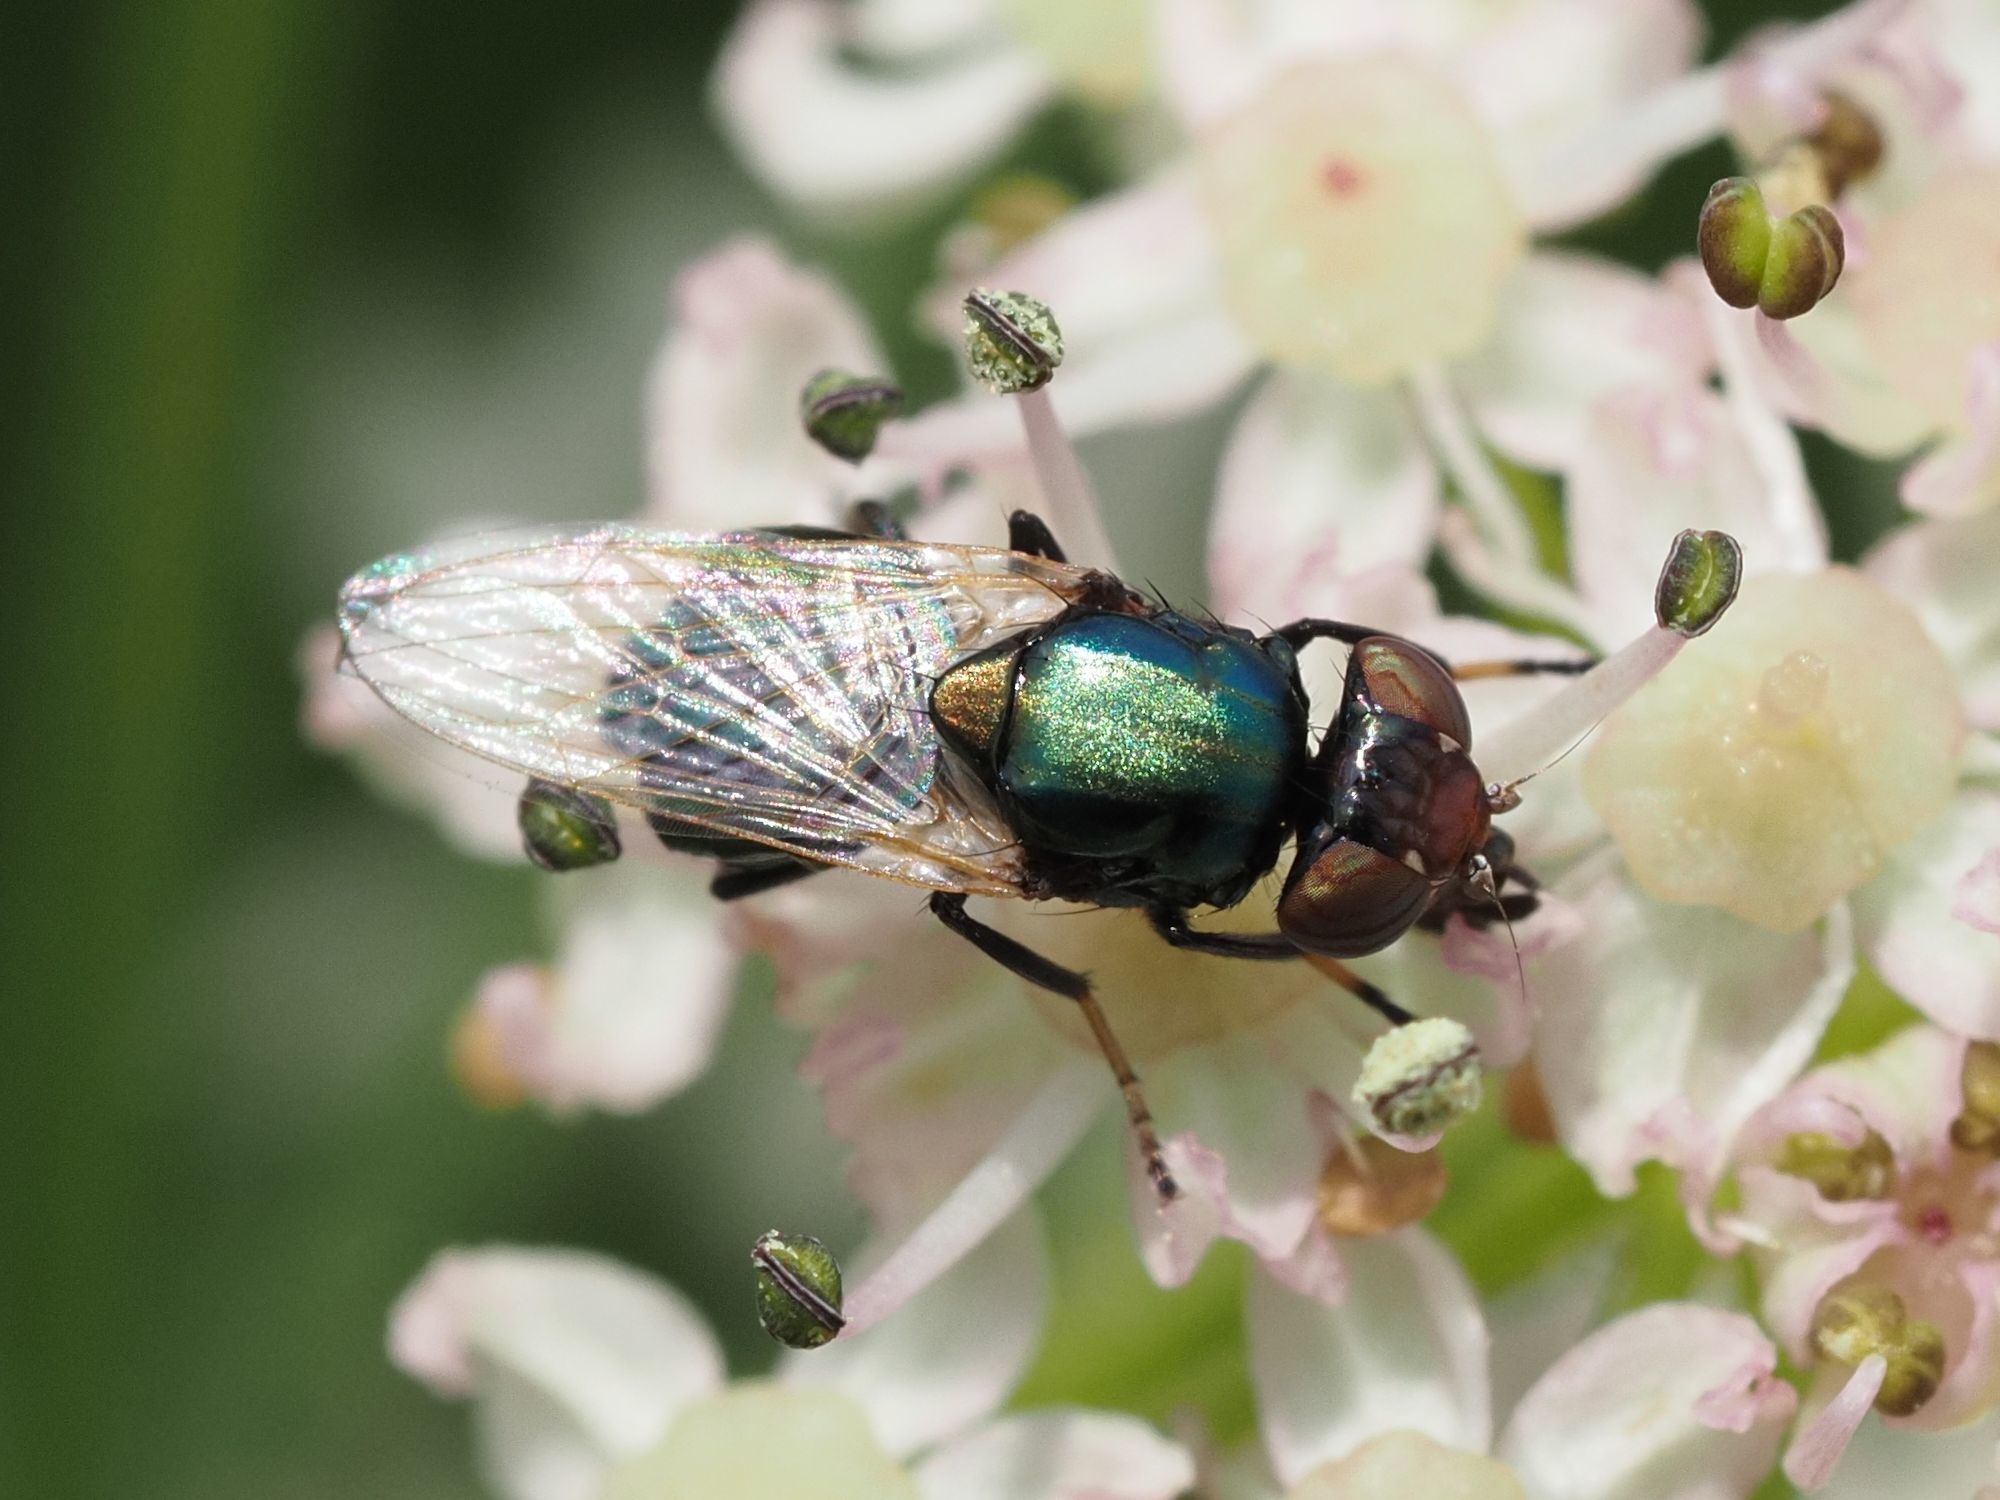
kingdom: Animalia
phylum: Arthropoda
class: Insecta
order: Diptera
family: Ulidiidae
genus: Physiphora
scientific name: Physiphora alceae
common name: Picture-winged fly
